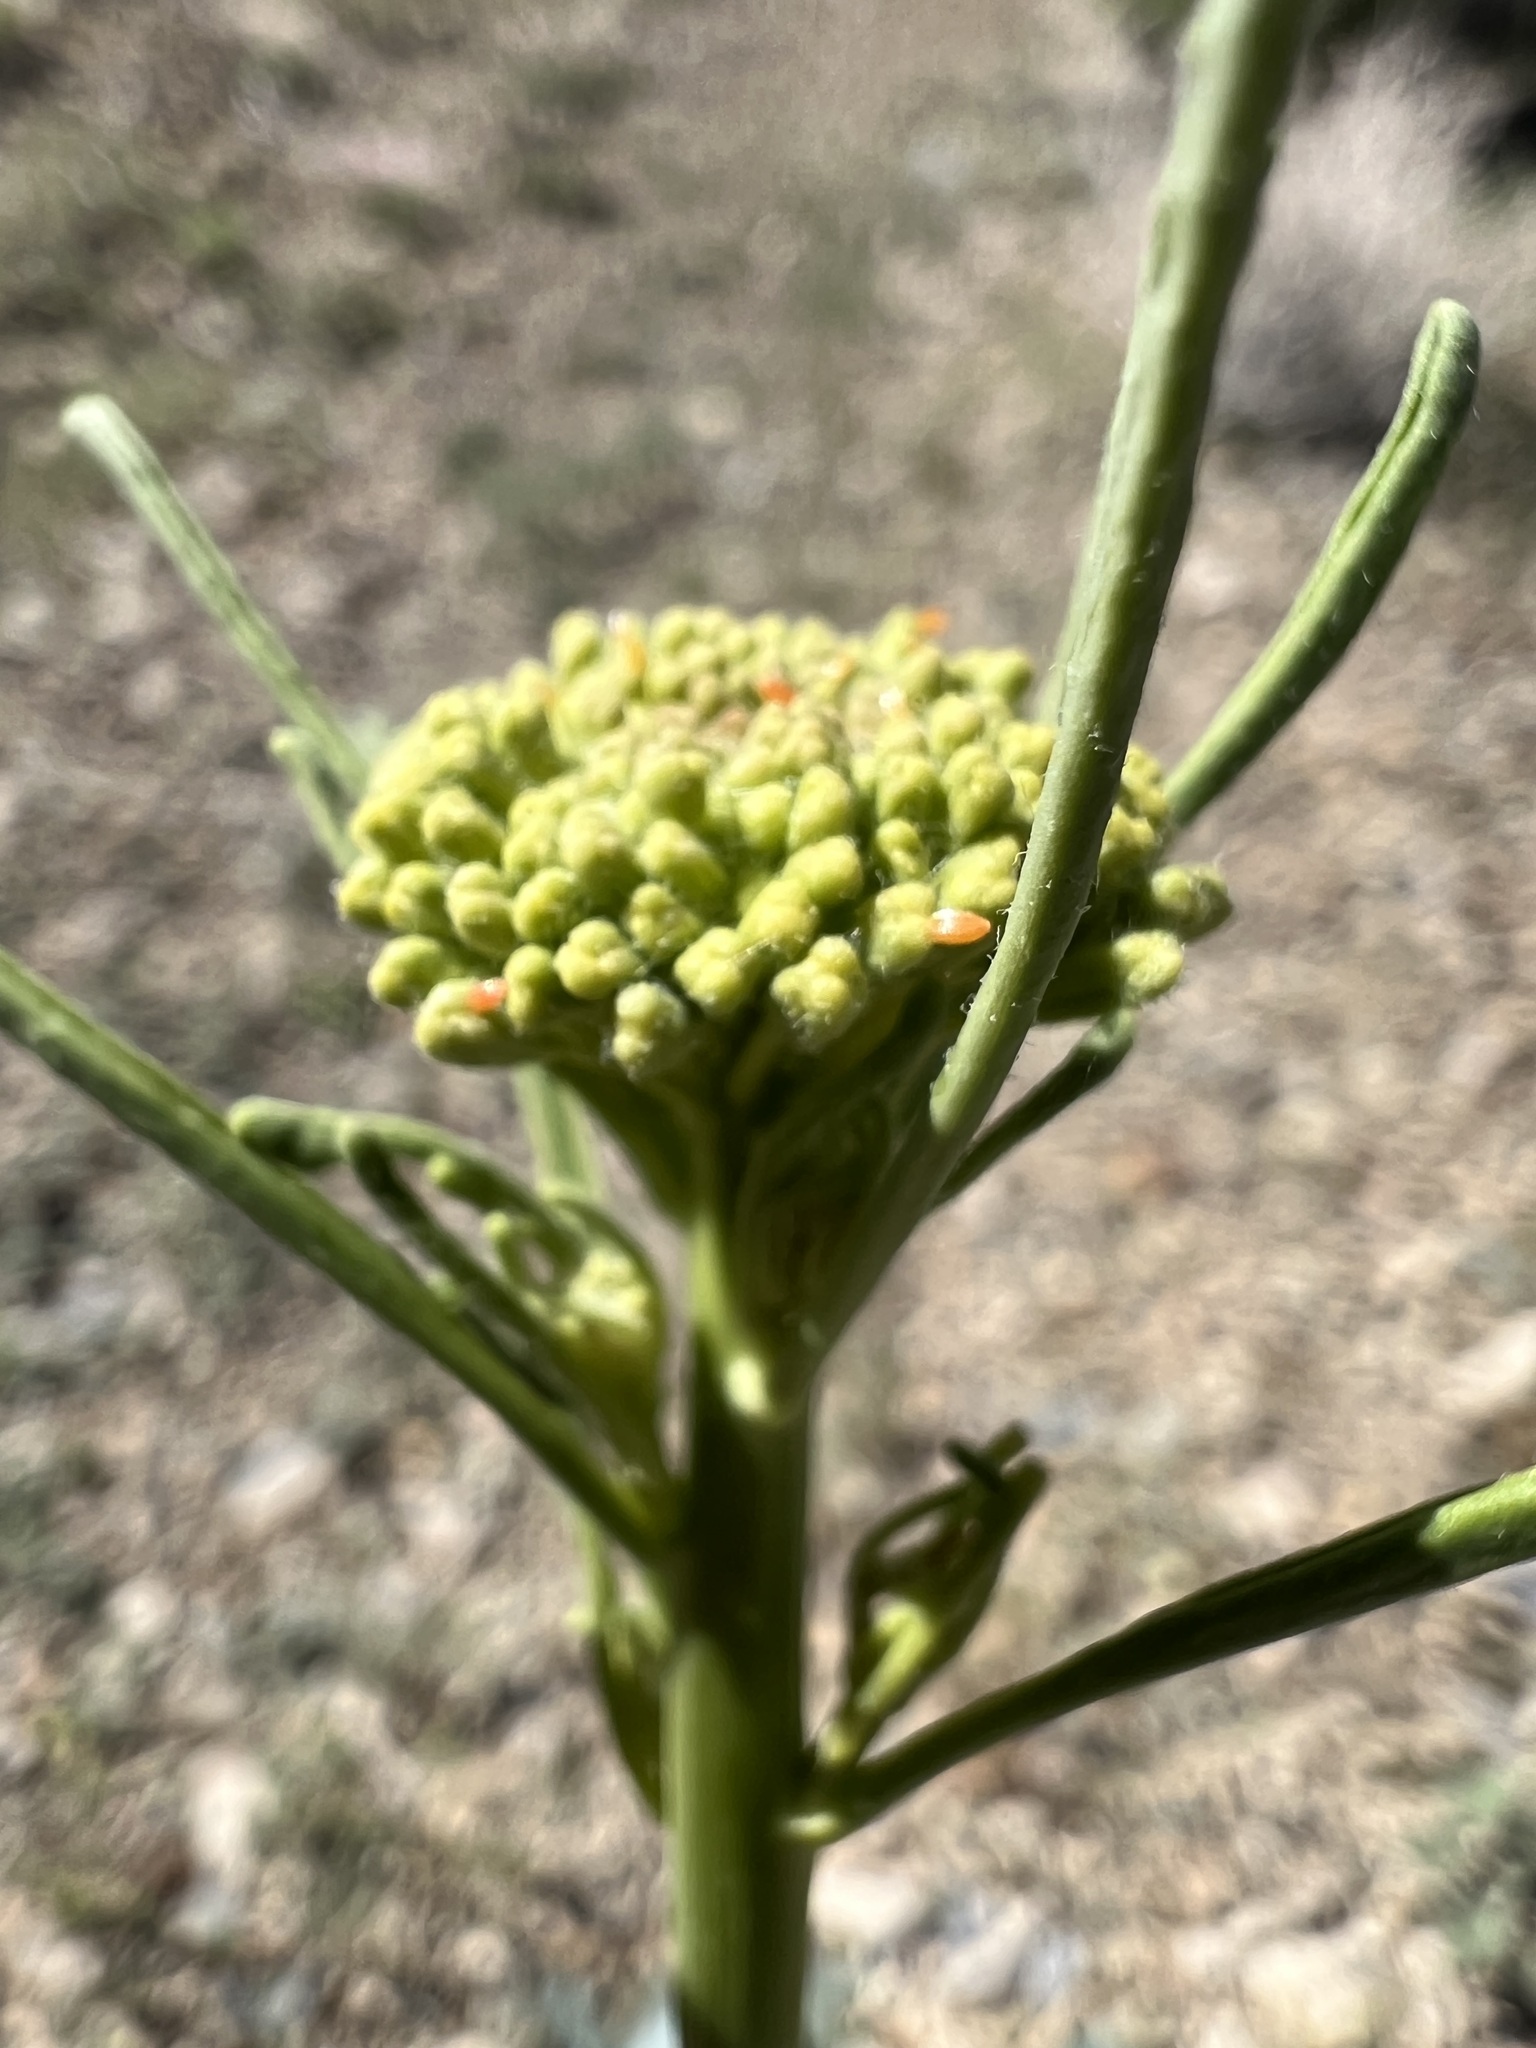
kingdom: Plantae
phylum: Tracheophyta
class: Magnoliopsida
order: Brassicales
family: Brassicaceae
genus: Stanleya
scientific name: Stanleya elata
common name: Panamint prince's plume
